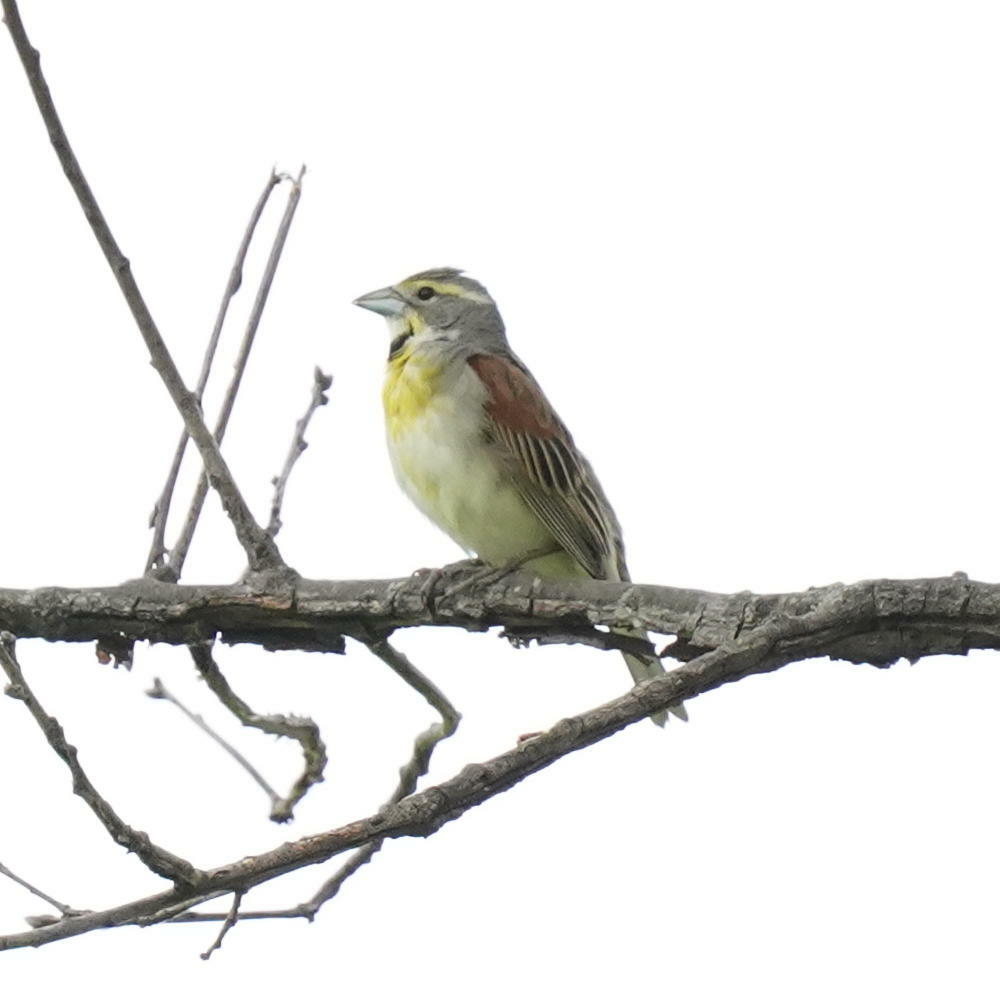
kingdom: Animalia
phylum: Chordata
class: Aves
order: Passeriformes
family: Cardinalidae
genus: Spiza
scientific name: Spiza americana
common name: Dickcissel
